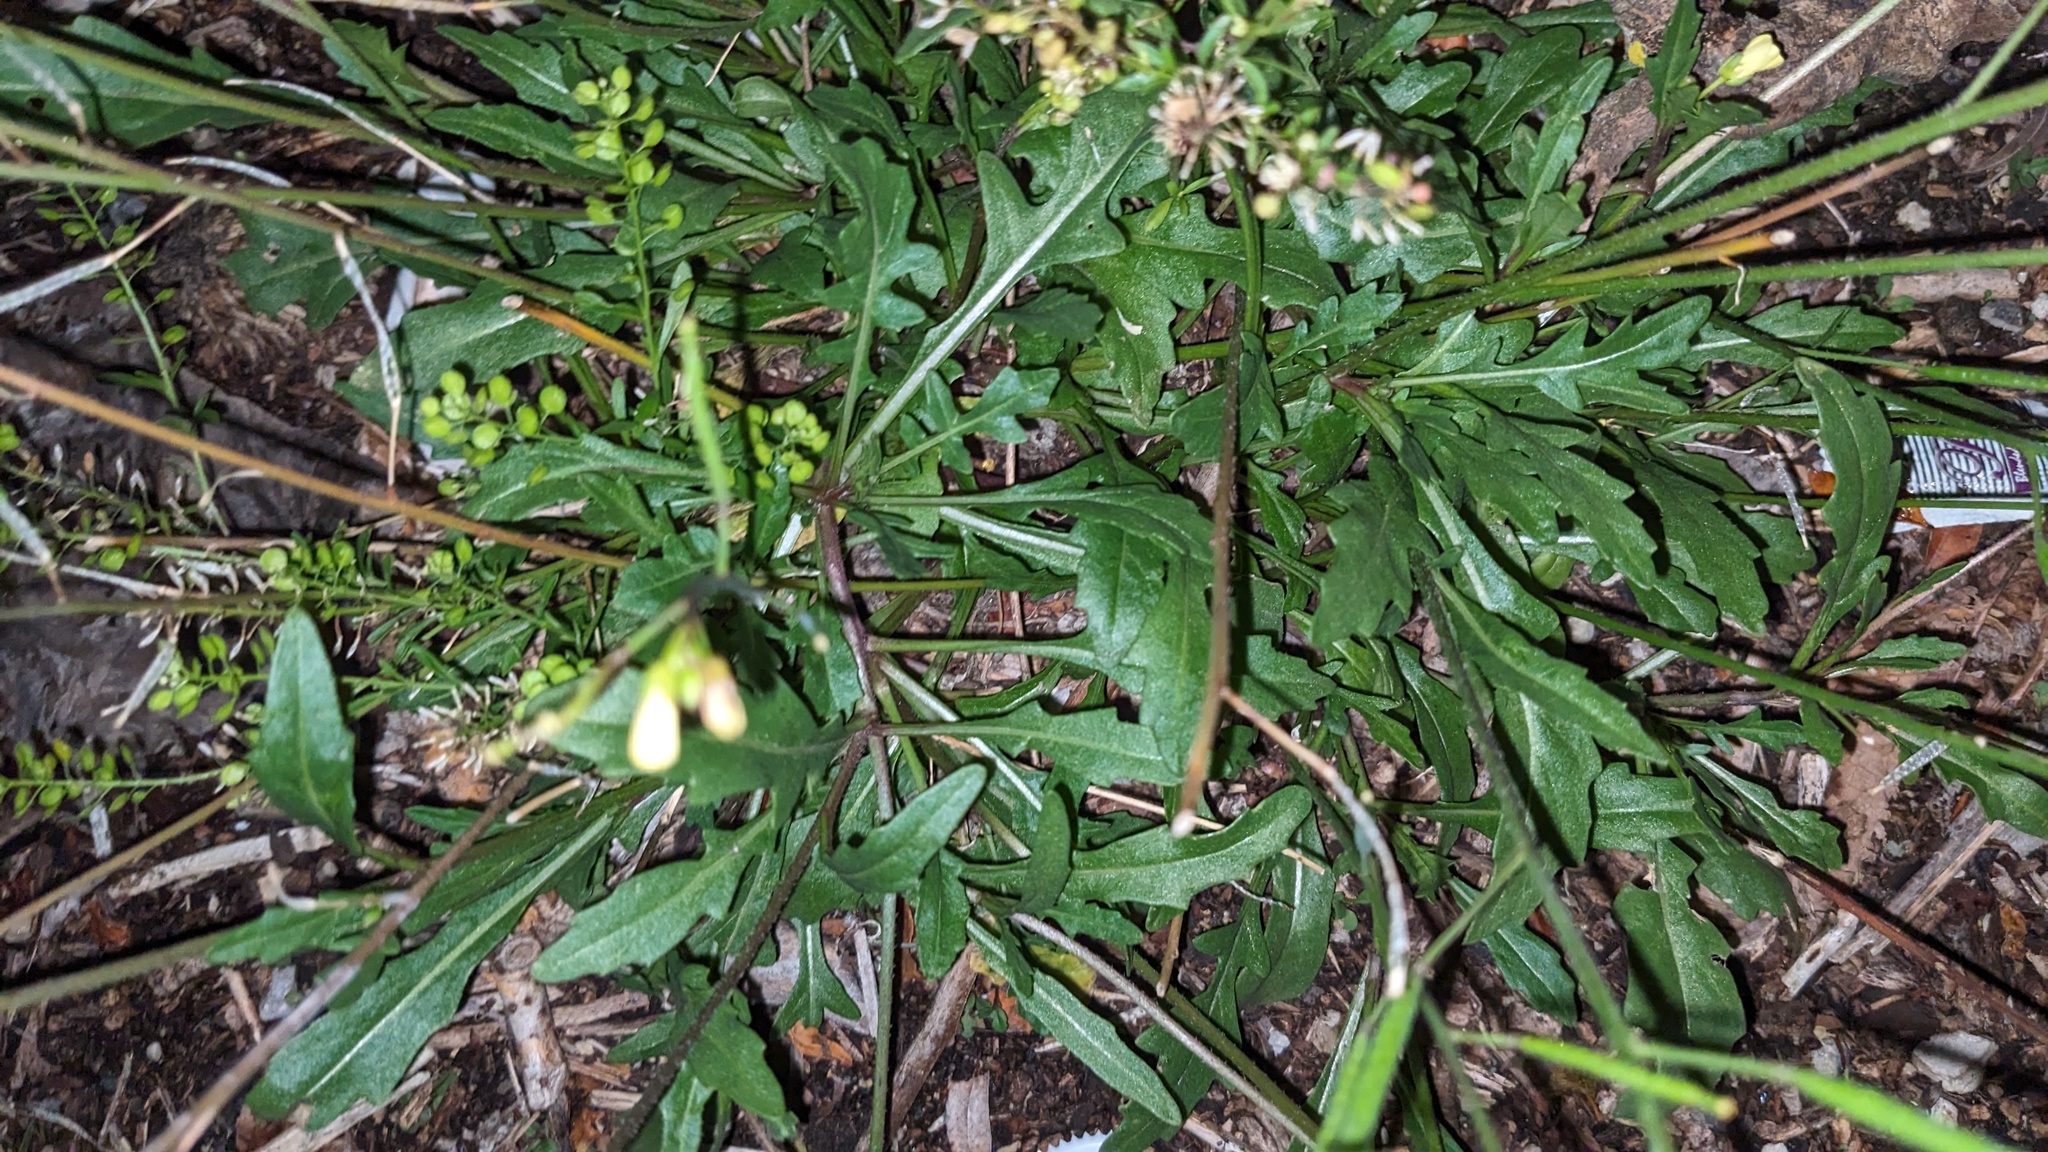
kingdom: Plantae
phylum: Tracheophyta
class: Magnoliopsida
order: Brassicales
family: Brassicaceae
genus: Diplotaxis
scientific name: Diplotaxis muralis
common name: Annual wall-rocket
